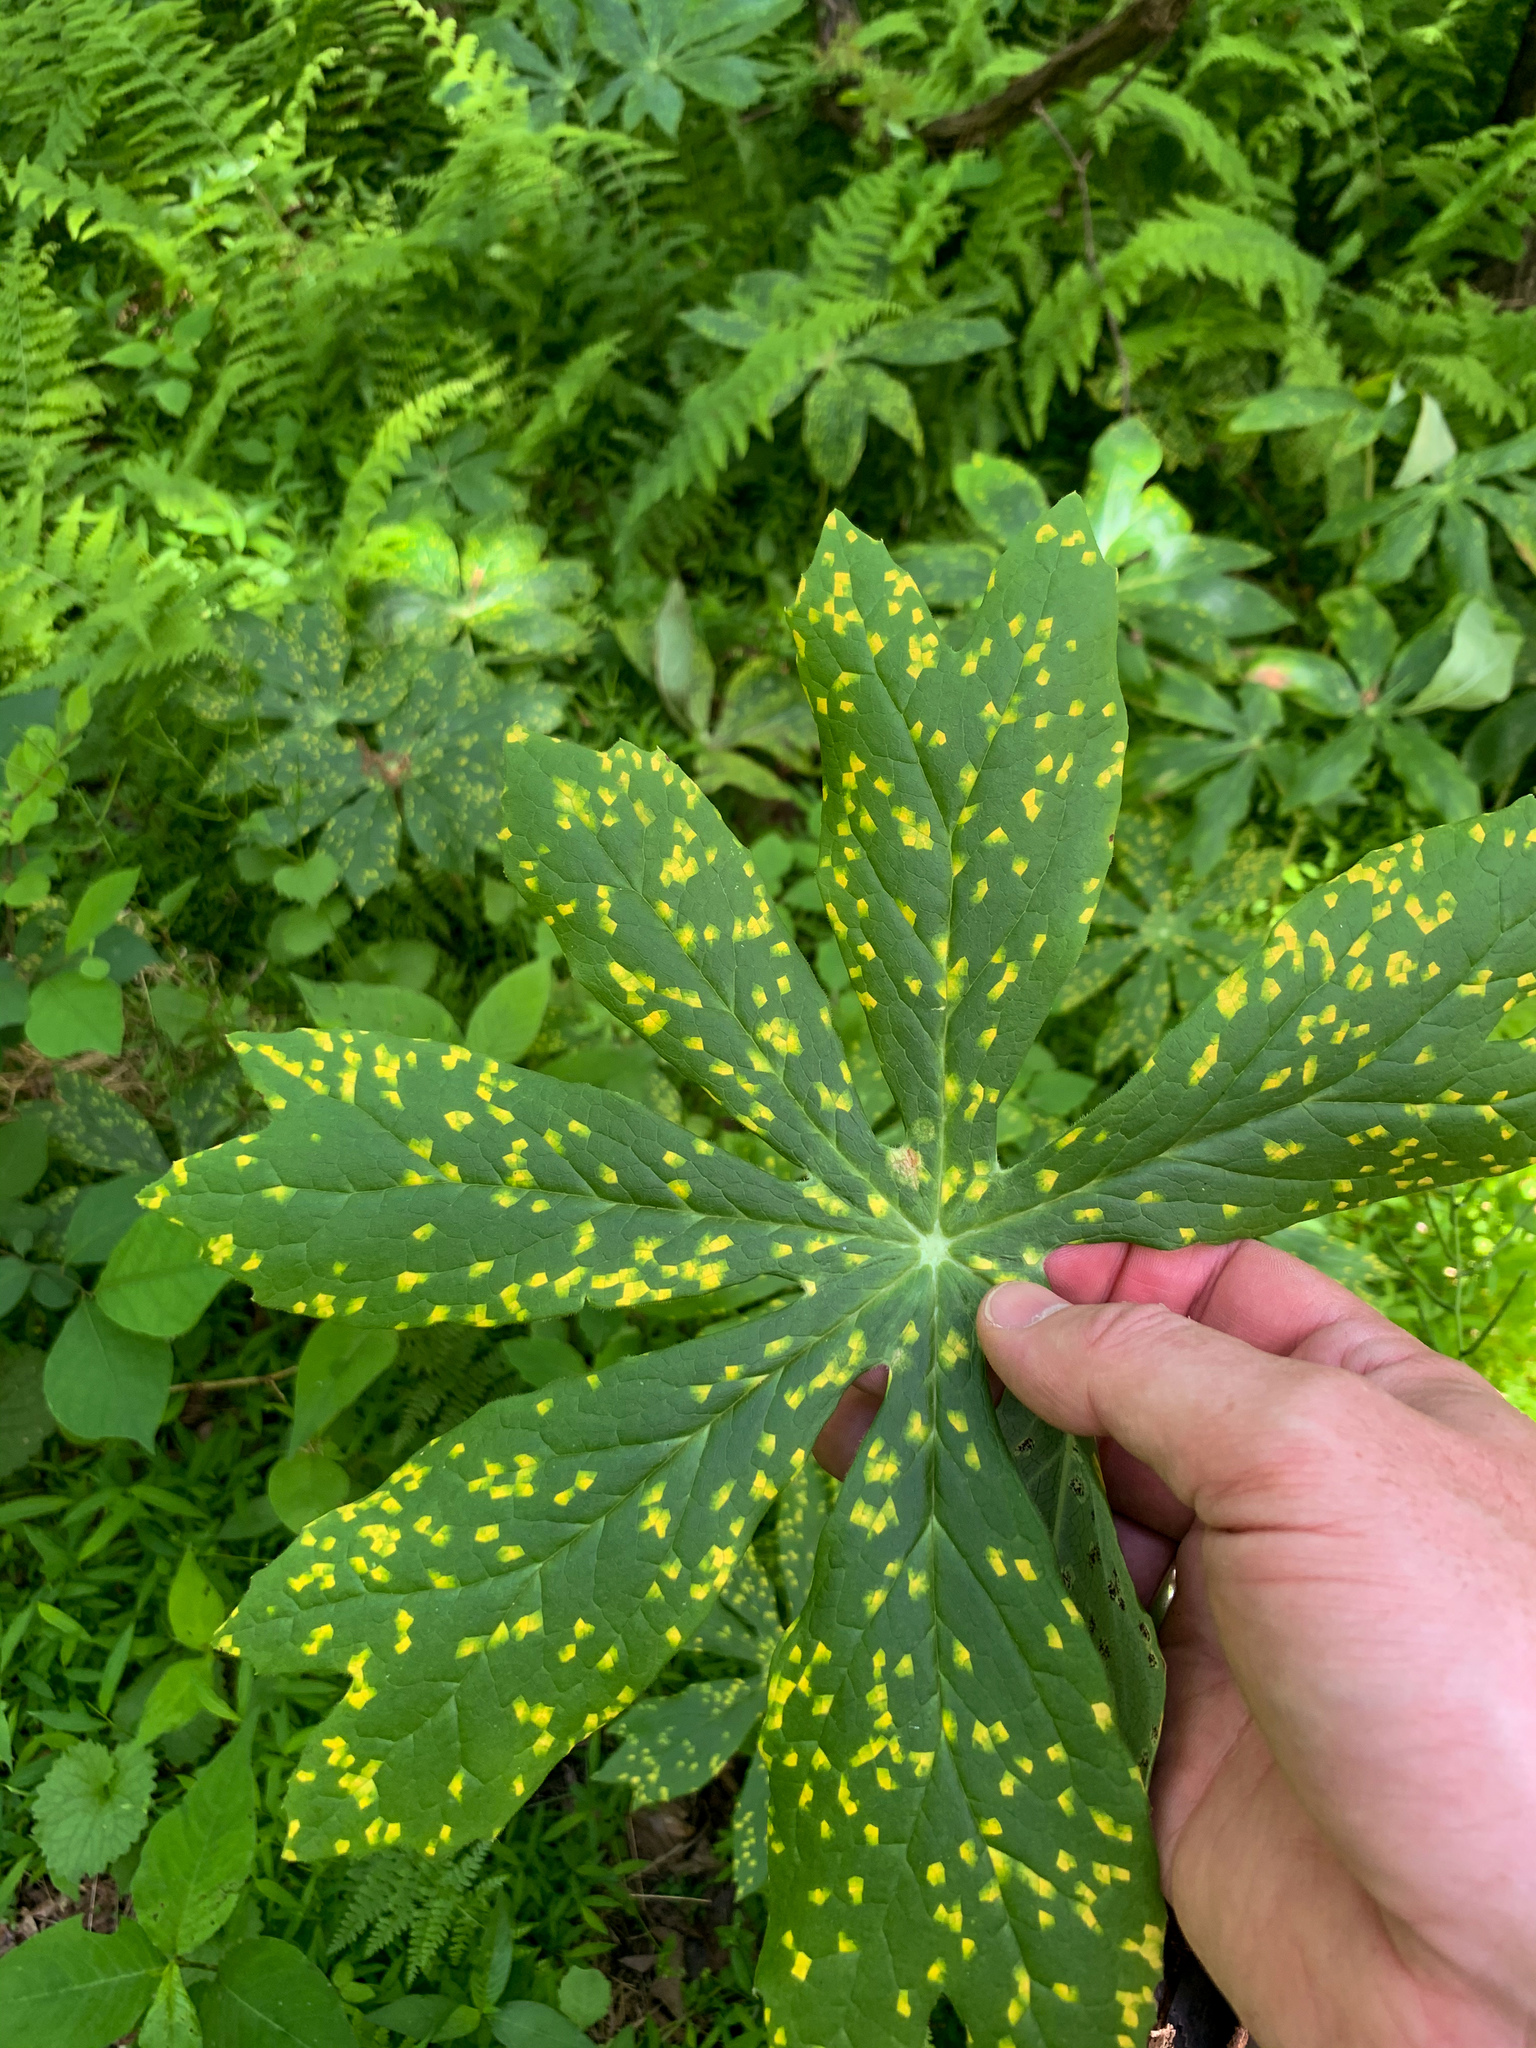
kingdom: Fungi
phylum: Basidiomycota
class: Pucciniomycetes
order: Pucciniales
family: Pucciniaceae
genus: Puccinia
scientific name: Puccinia podophylli
